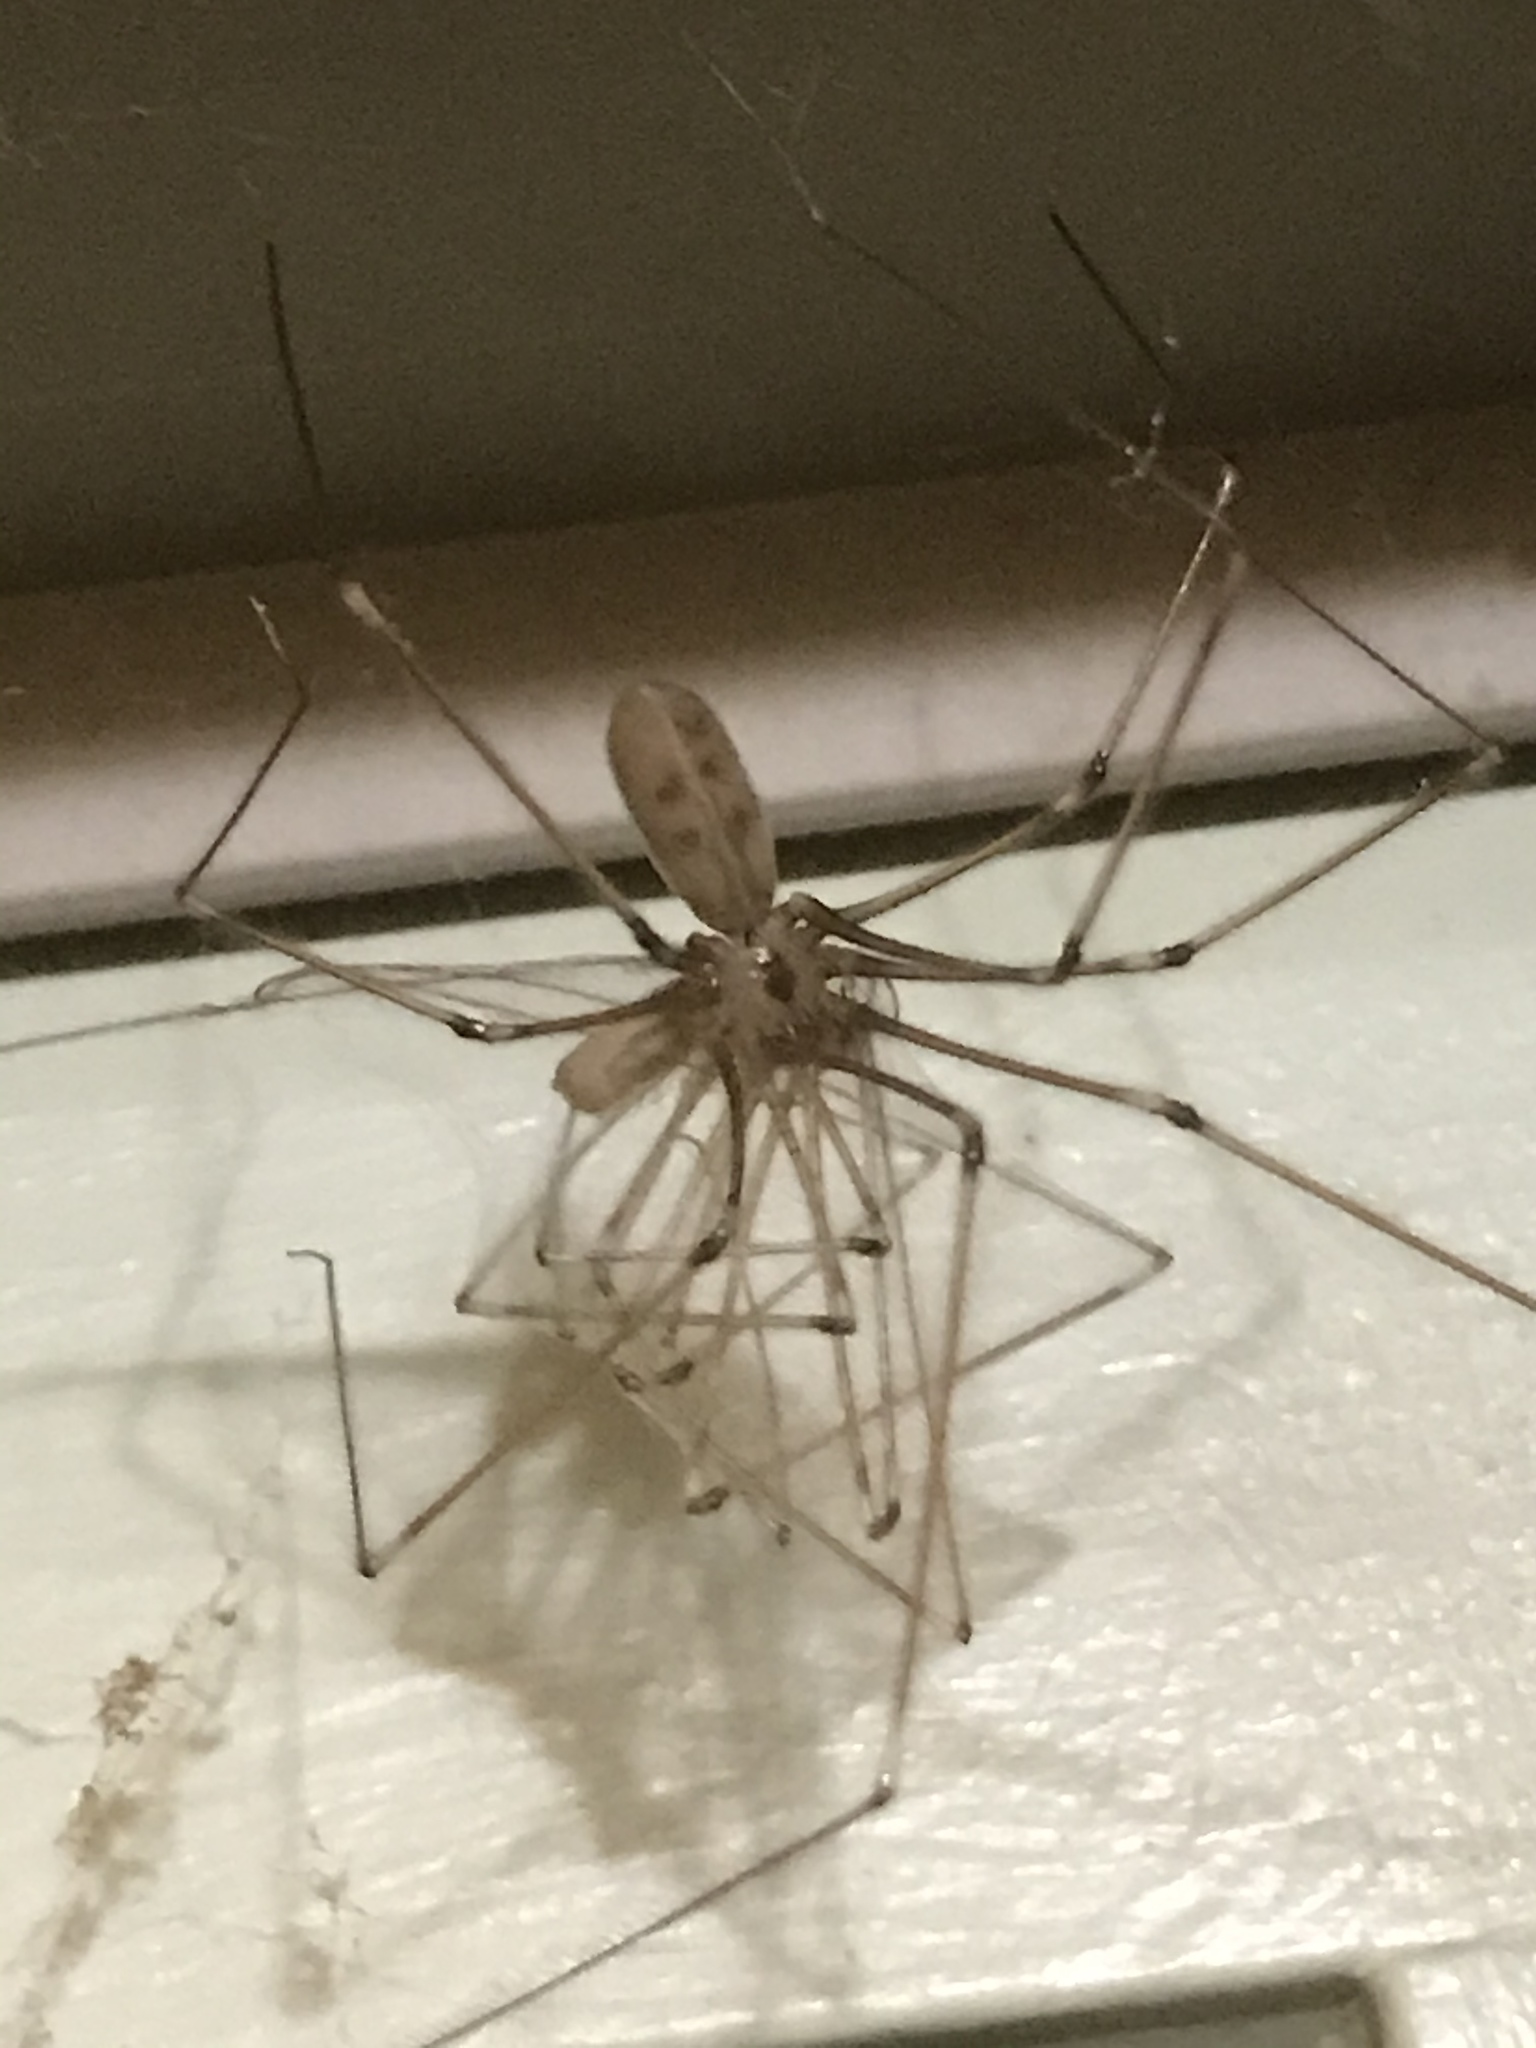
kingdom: Animalia
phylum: Arthropoda
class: Arachnida
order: Araneae
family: Pholcidae
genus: Pholcus
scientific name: Pholcus phalangioides
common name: Longbodied cellar spider
